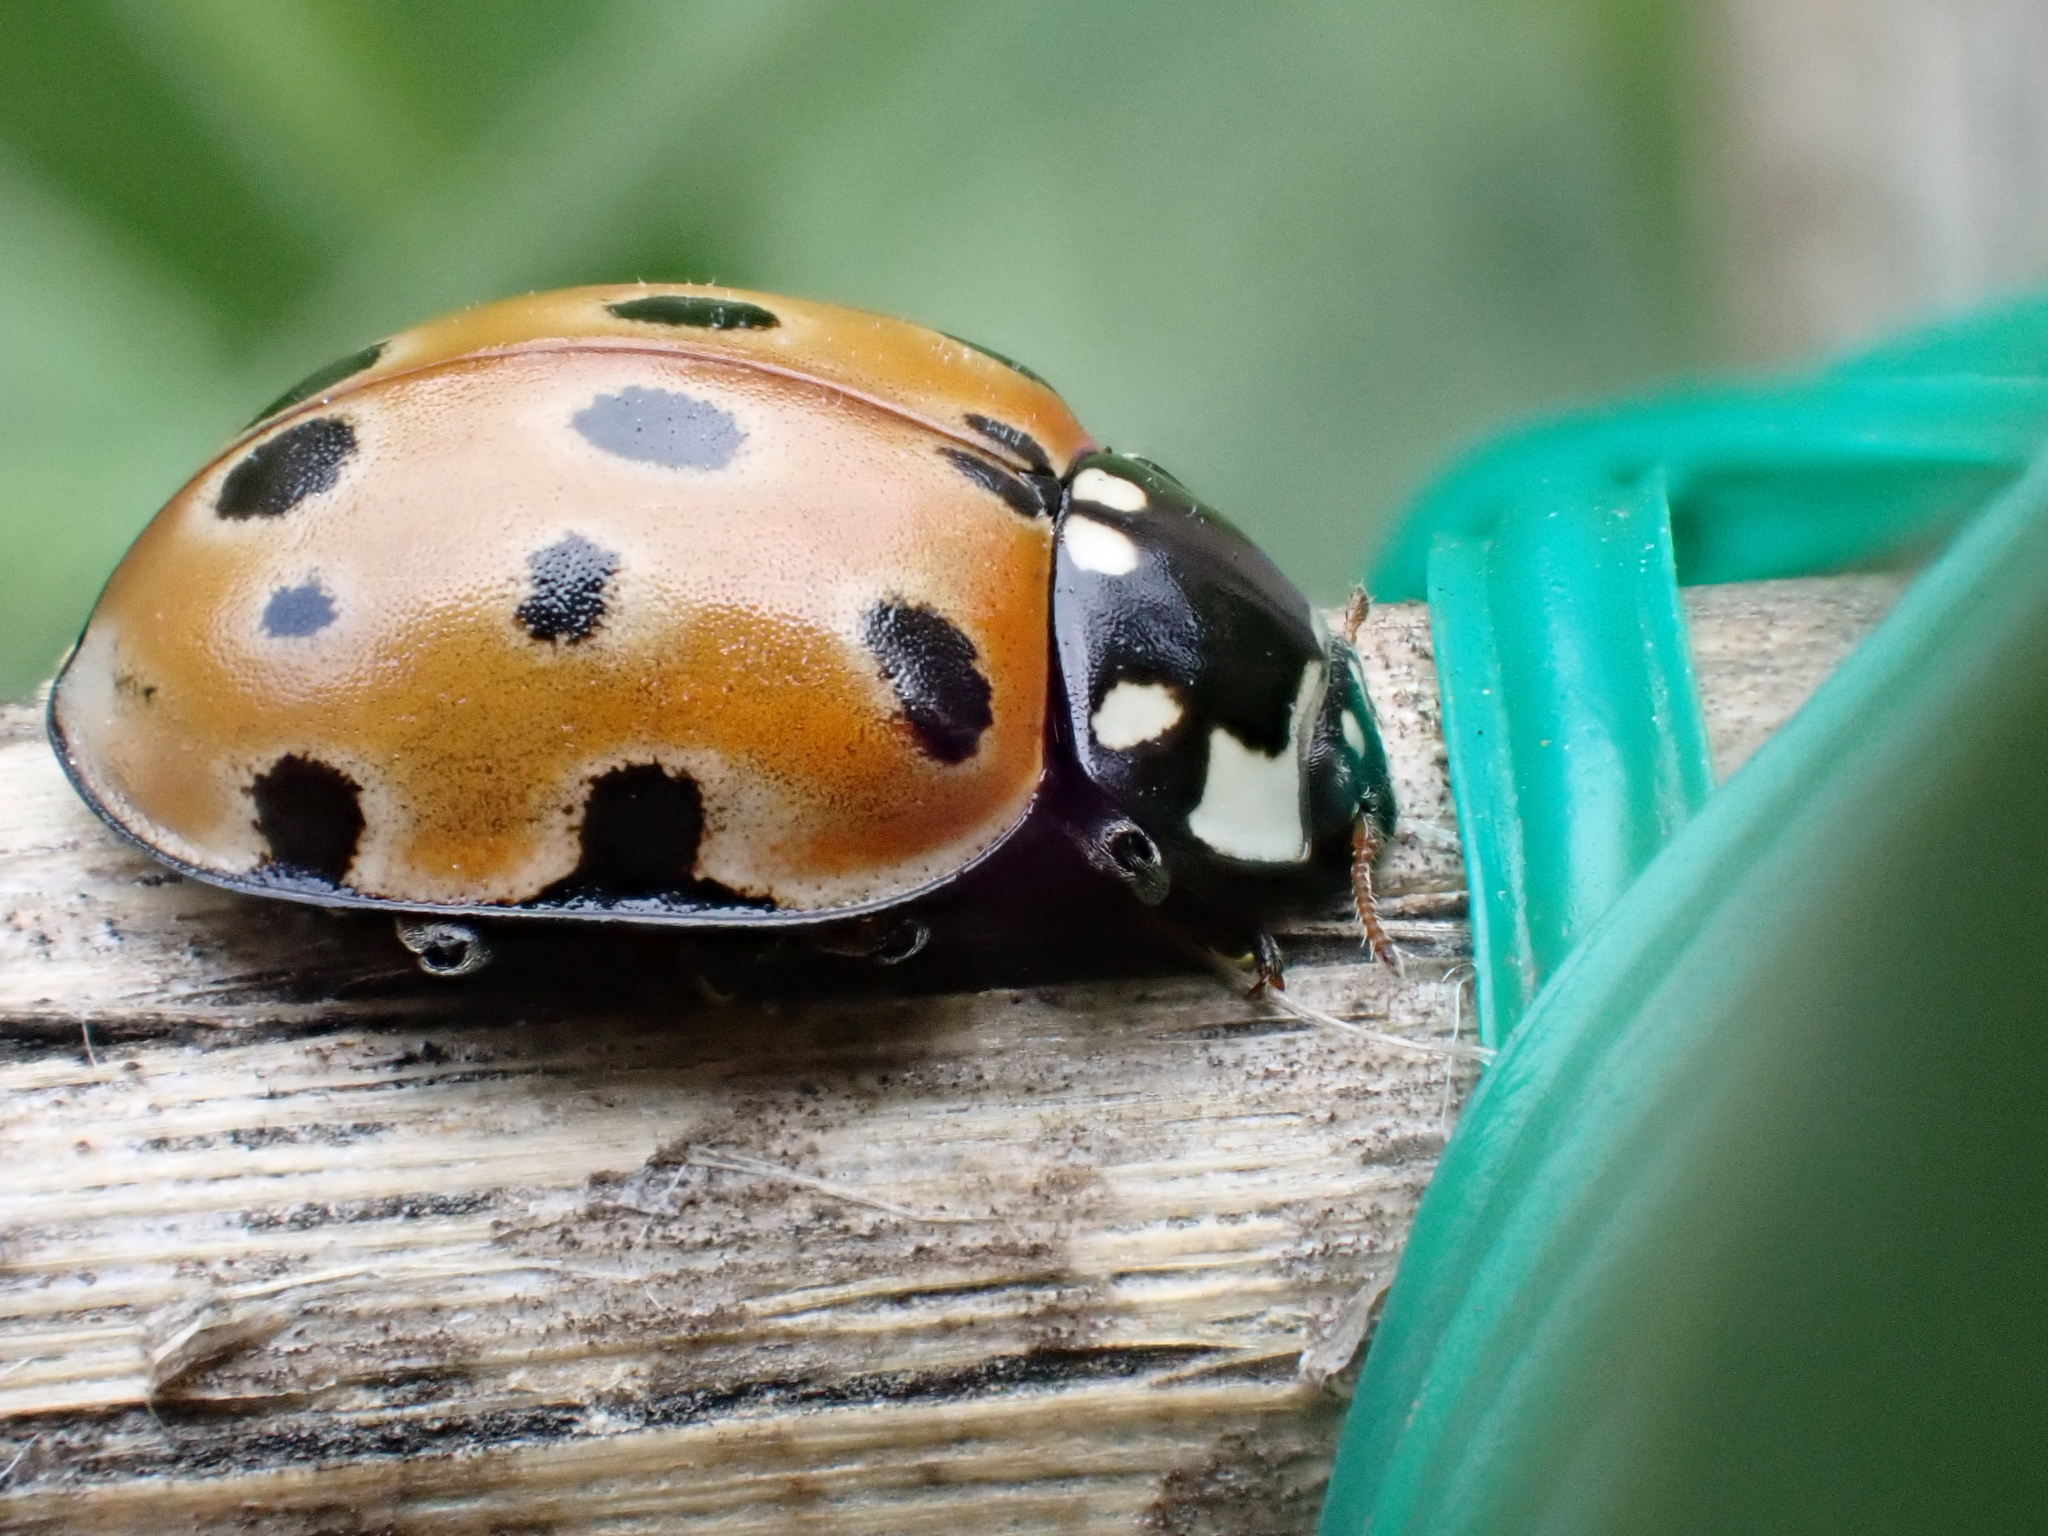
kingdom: Animalia
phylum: Arthropoda
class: Insecta
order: Coleoptera
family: Coccinellidae
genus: Anatis
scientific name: Anatis ocellata
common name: Eyed ladybird
